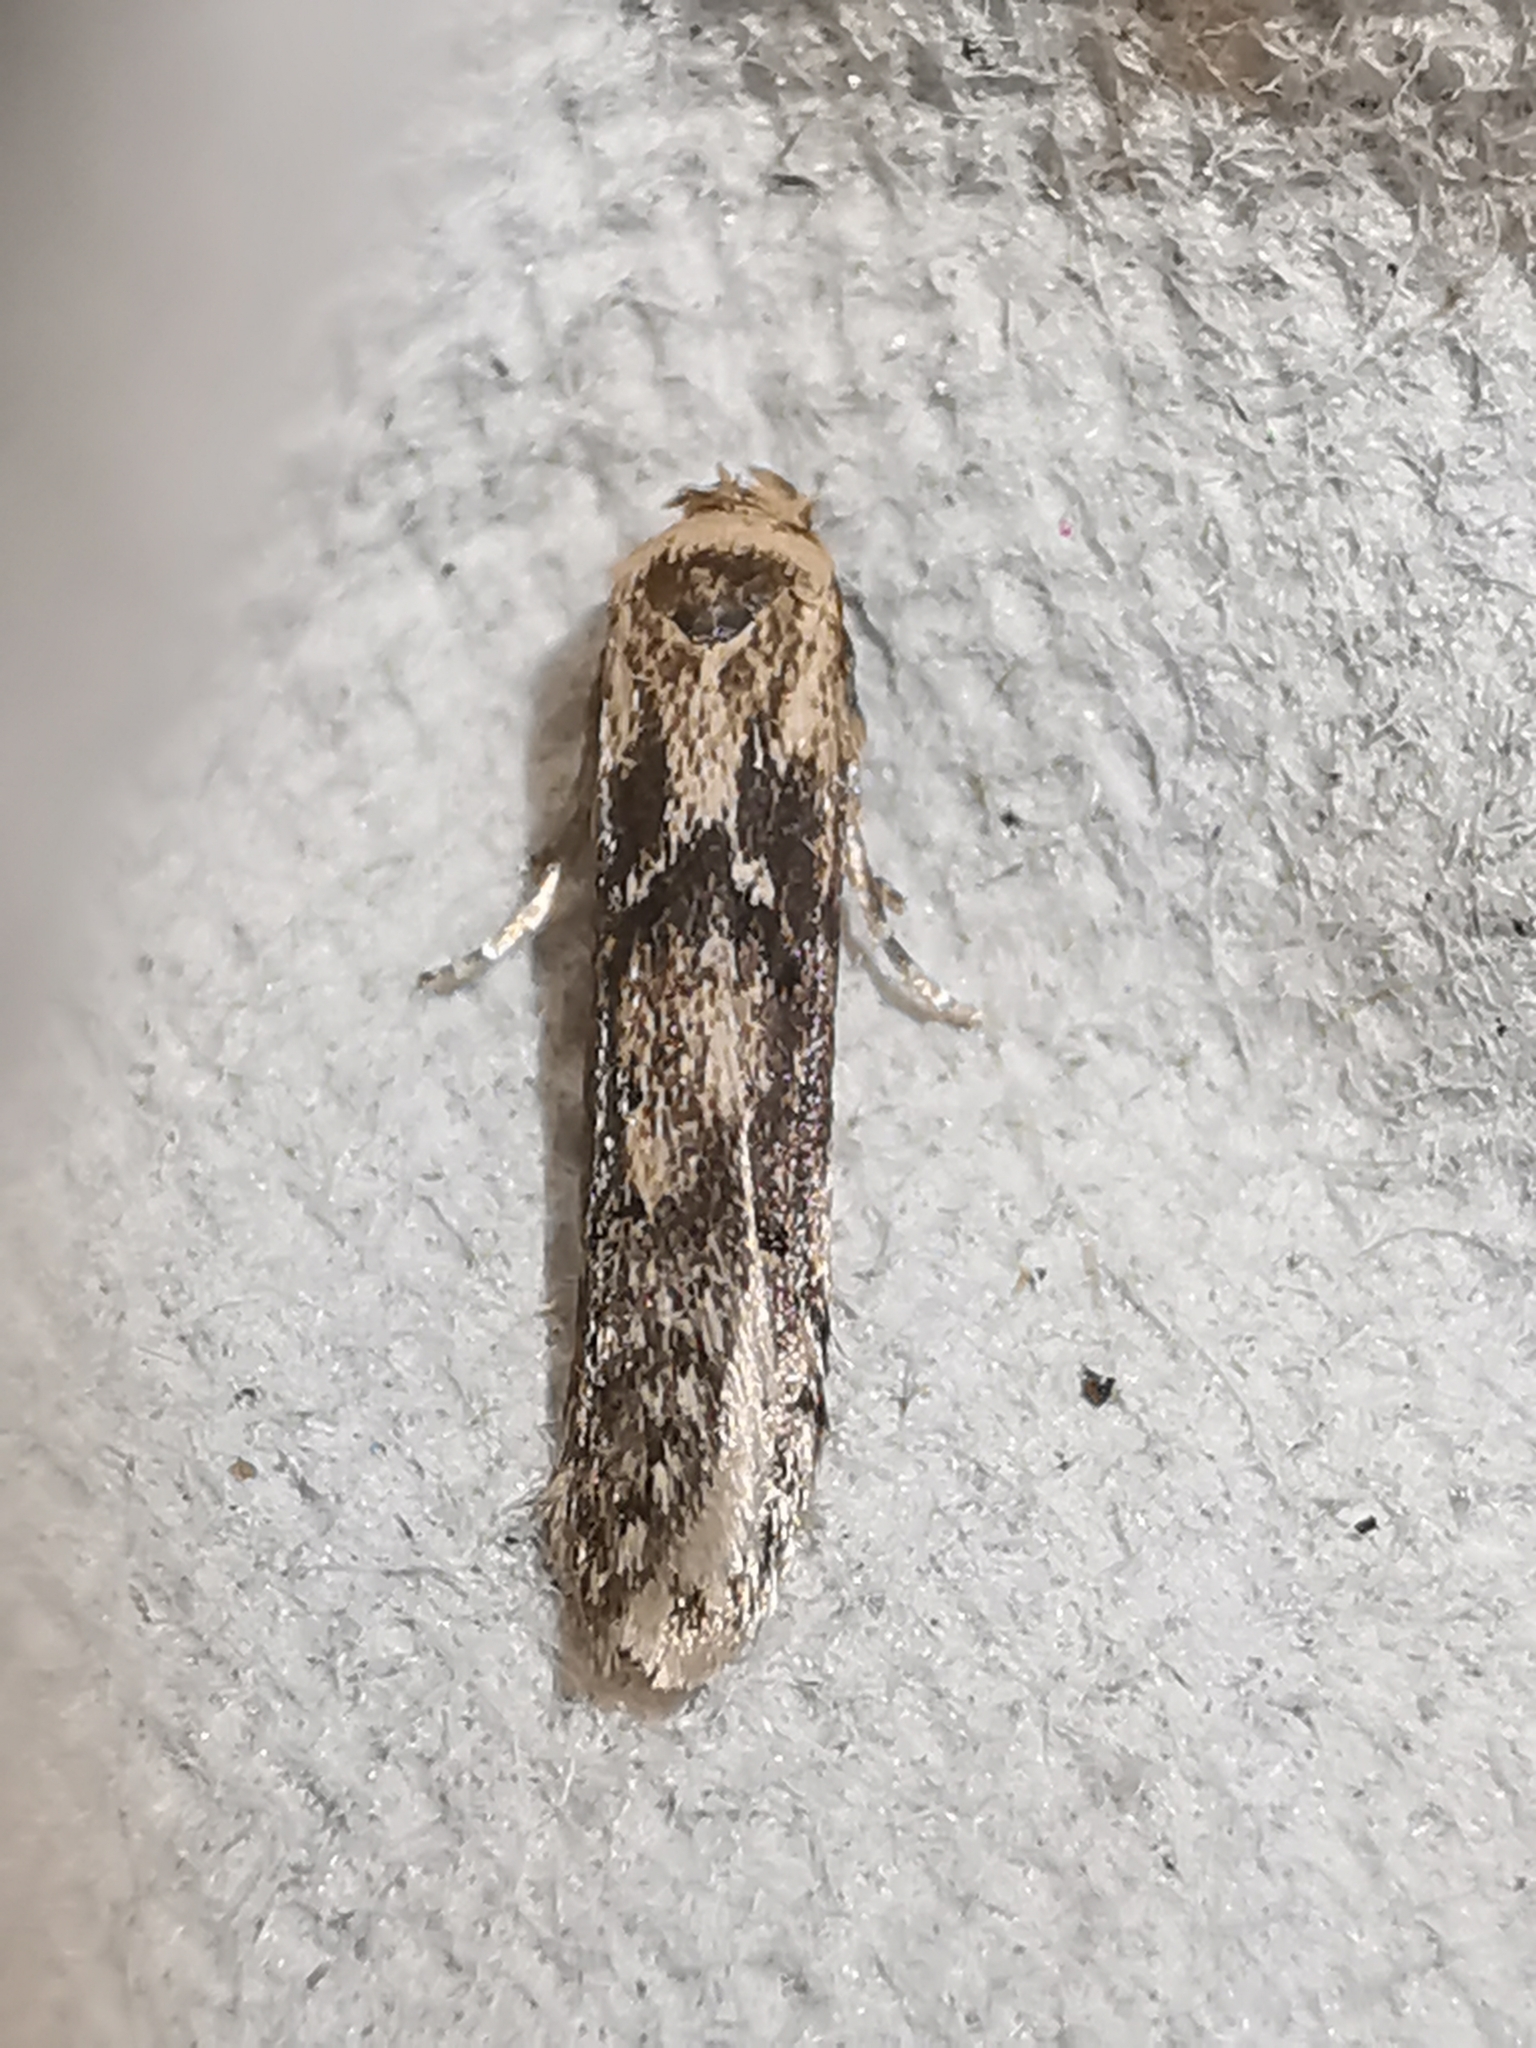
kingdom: Animalia
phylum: Arthropoda
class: Insecta
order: Lepidoptera
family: Blastobasidae
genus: Blastobasis
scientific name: Blastobasis adustella
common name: Dingy dowd
